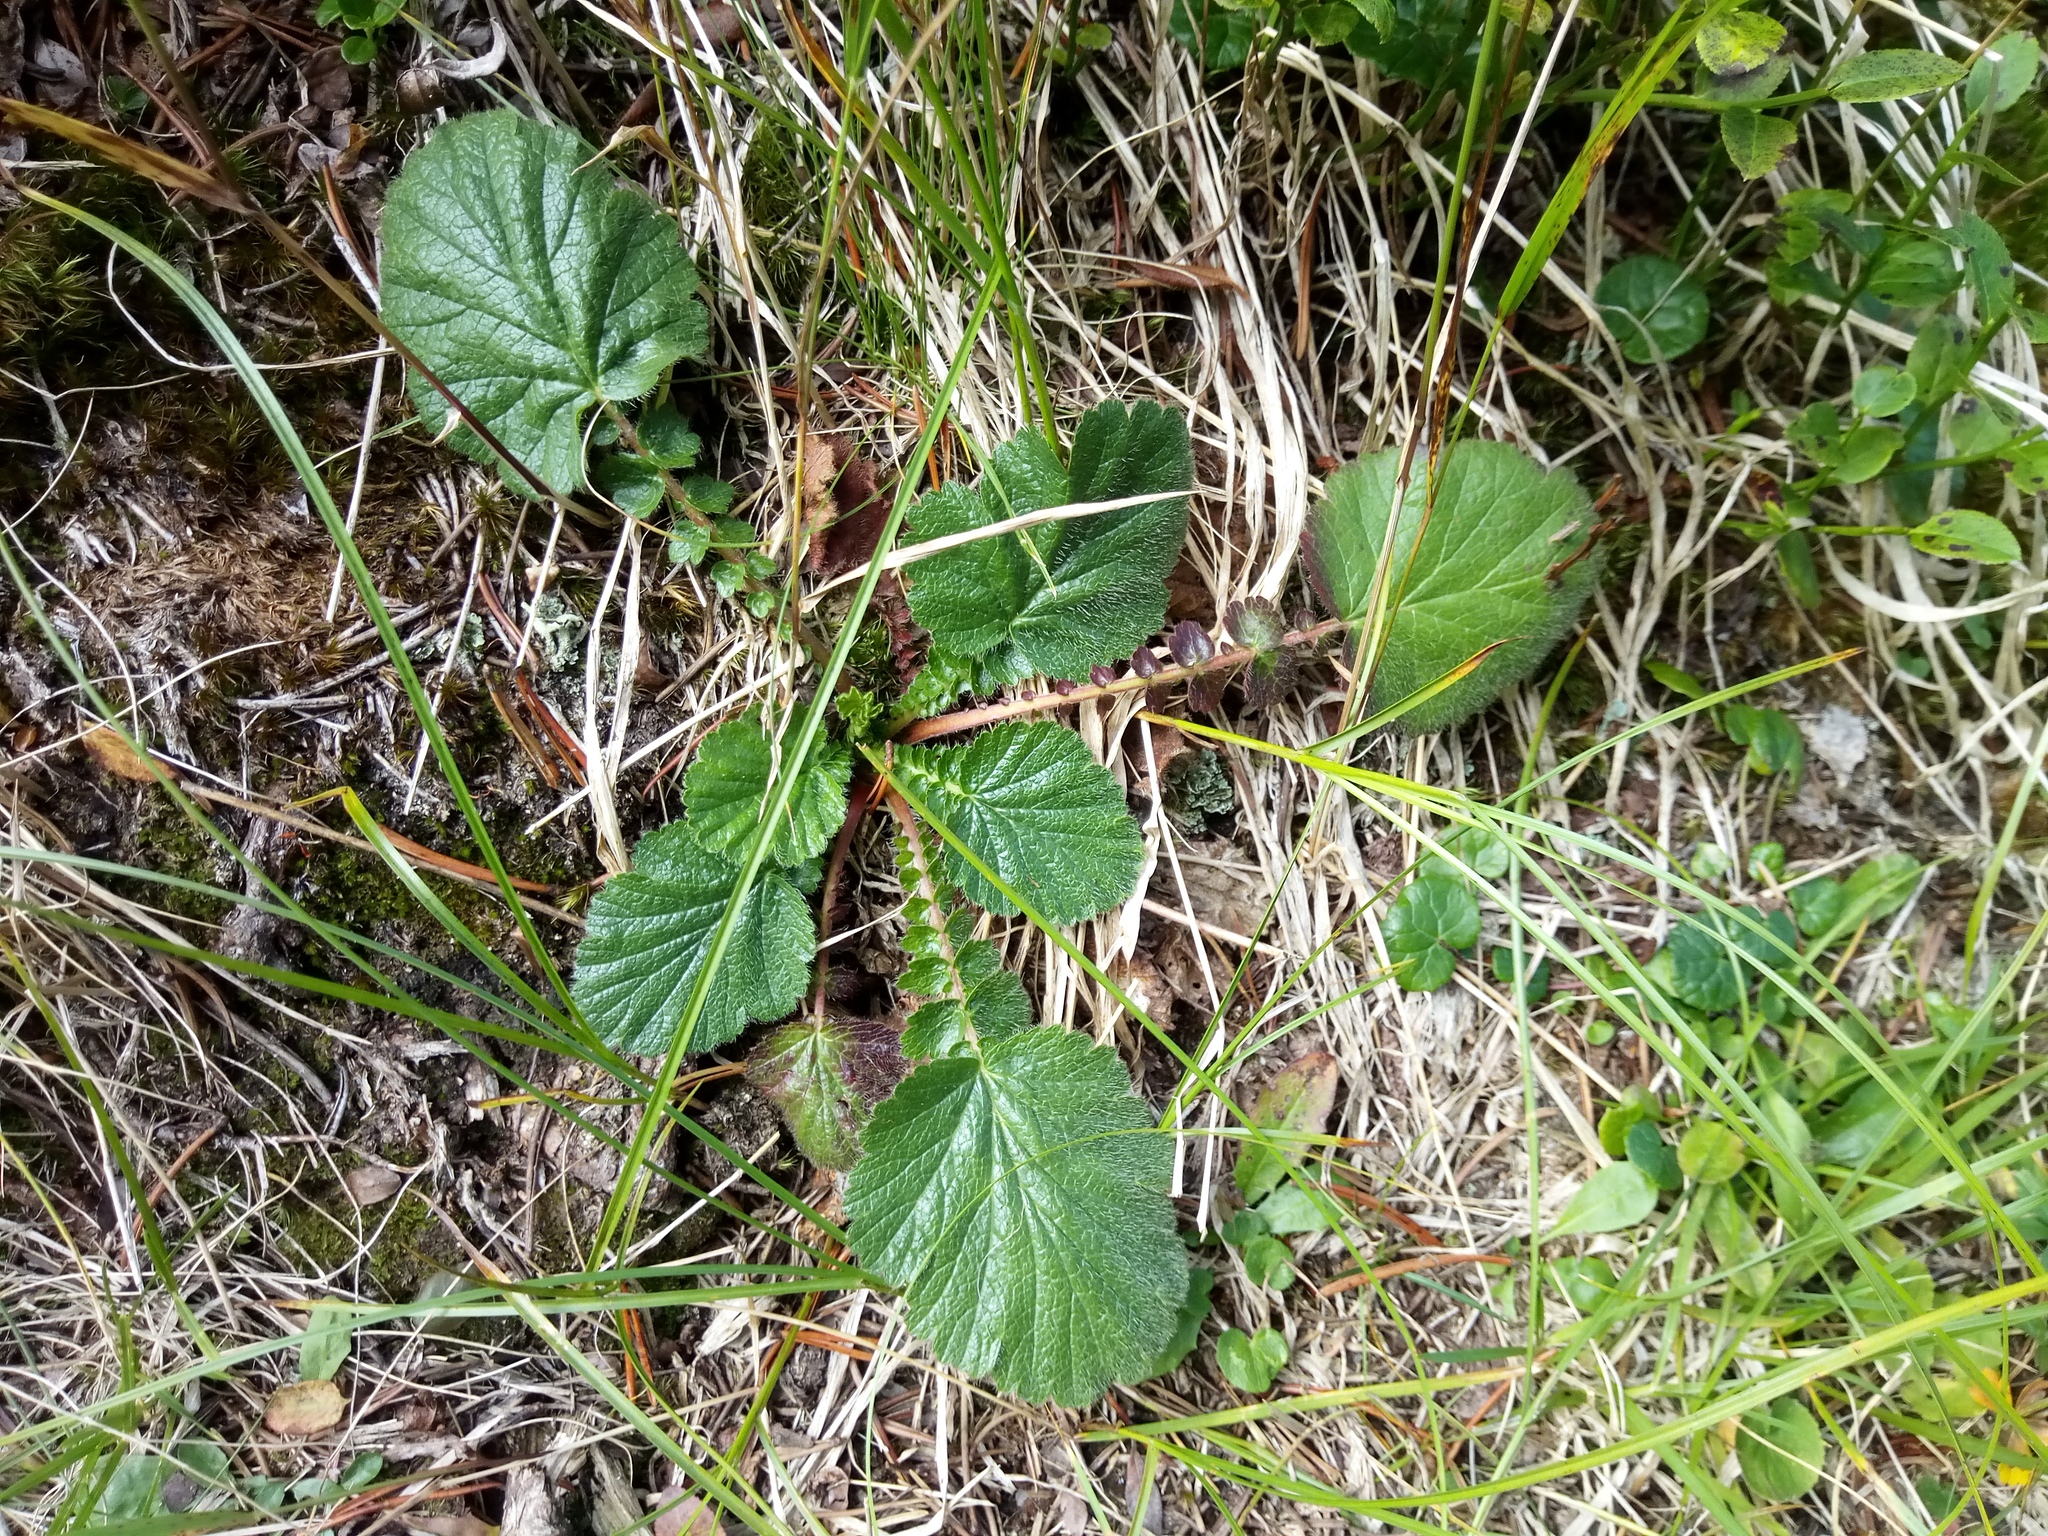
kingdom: Plantae
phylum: Tracheophyta
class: Magnoliopsida
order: Rosales
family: Rosaceae
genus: Geum
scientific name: Geum montanum
